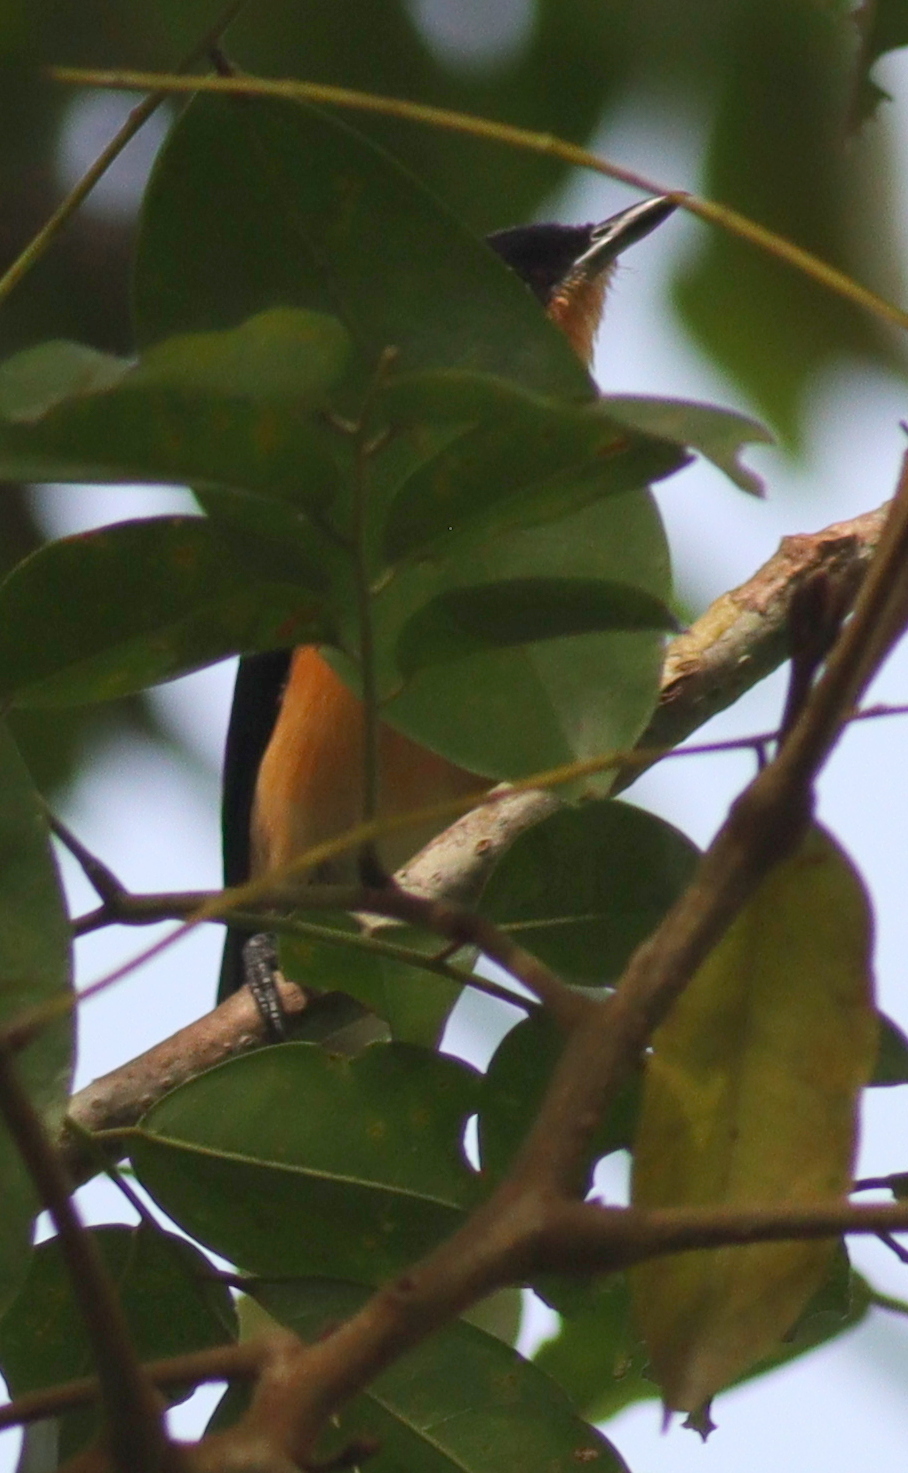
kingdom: Animalia
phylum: Chordata
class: Aves
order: Passeriformes
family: Hyliotidae
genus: Hyliota
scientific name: Hyliota violacea
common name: Violet-backed hyliota
